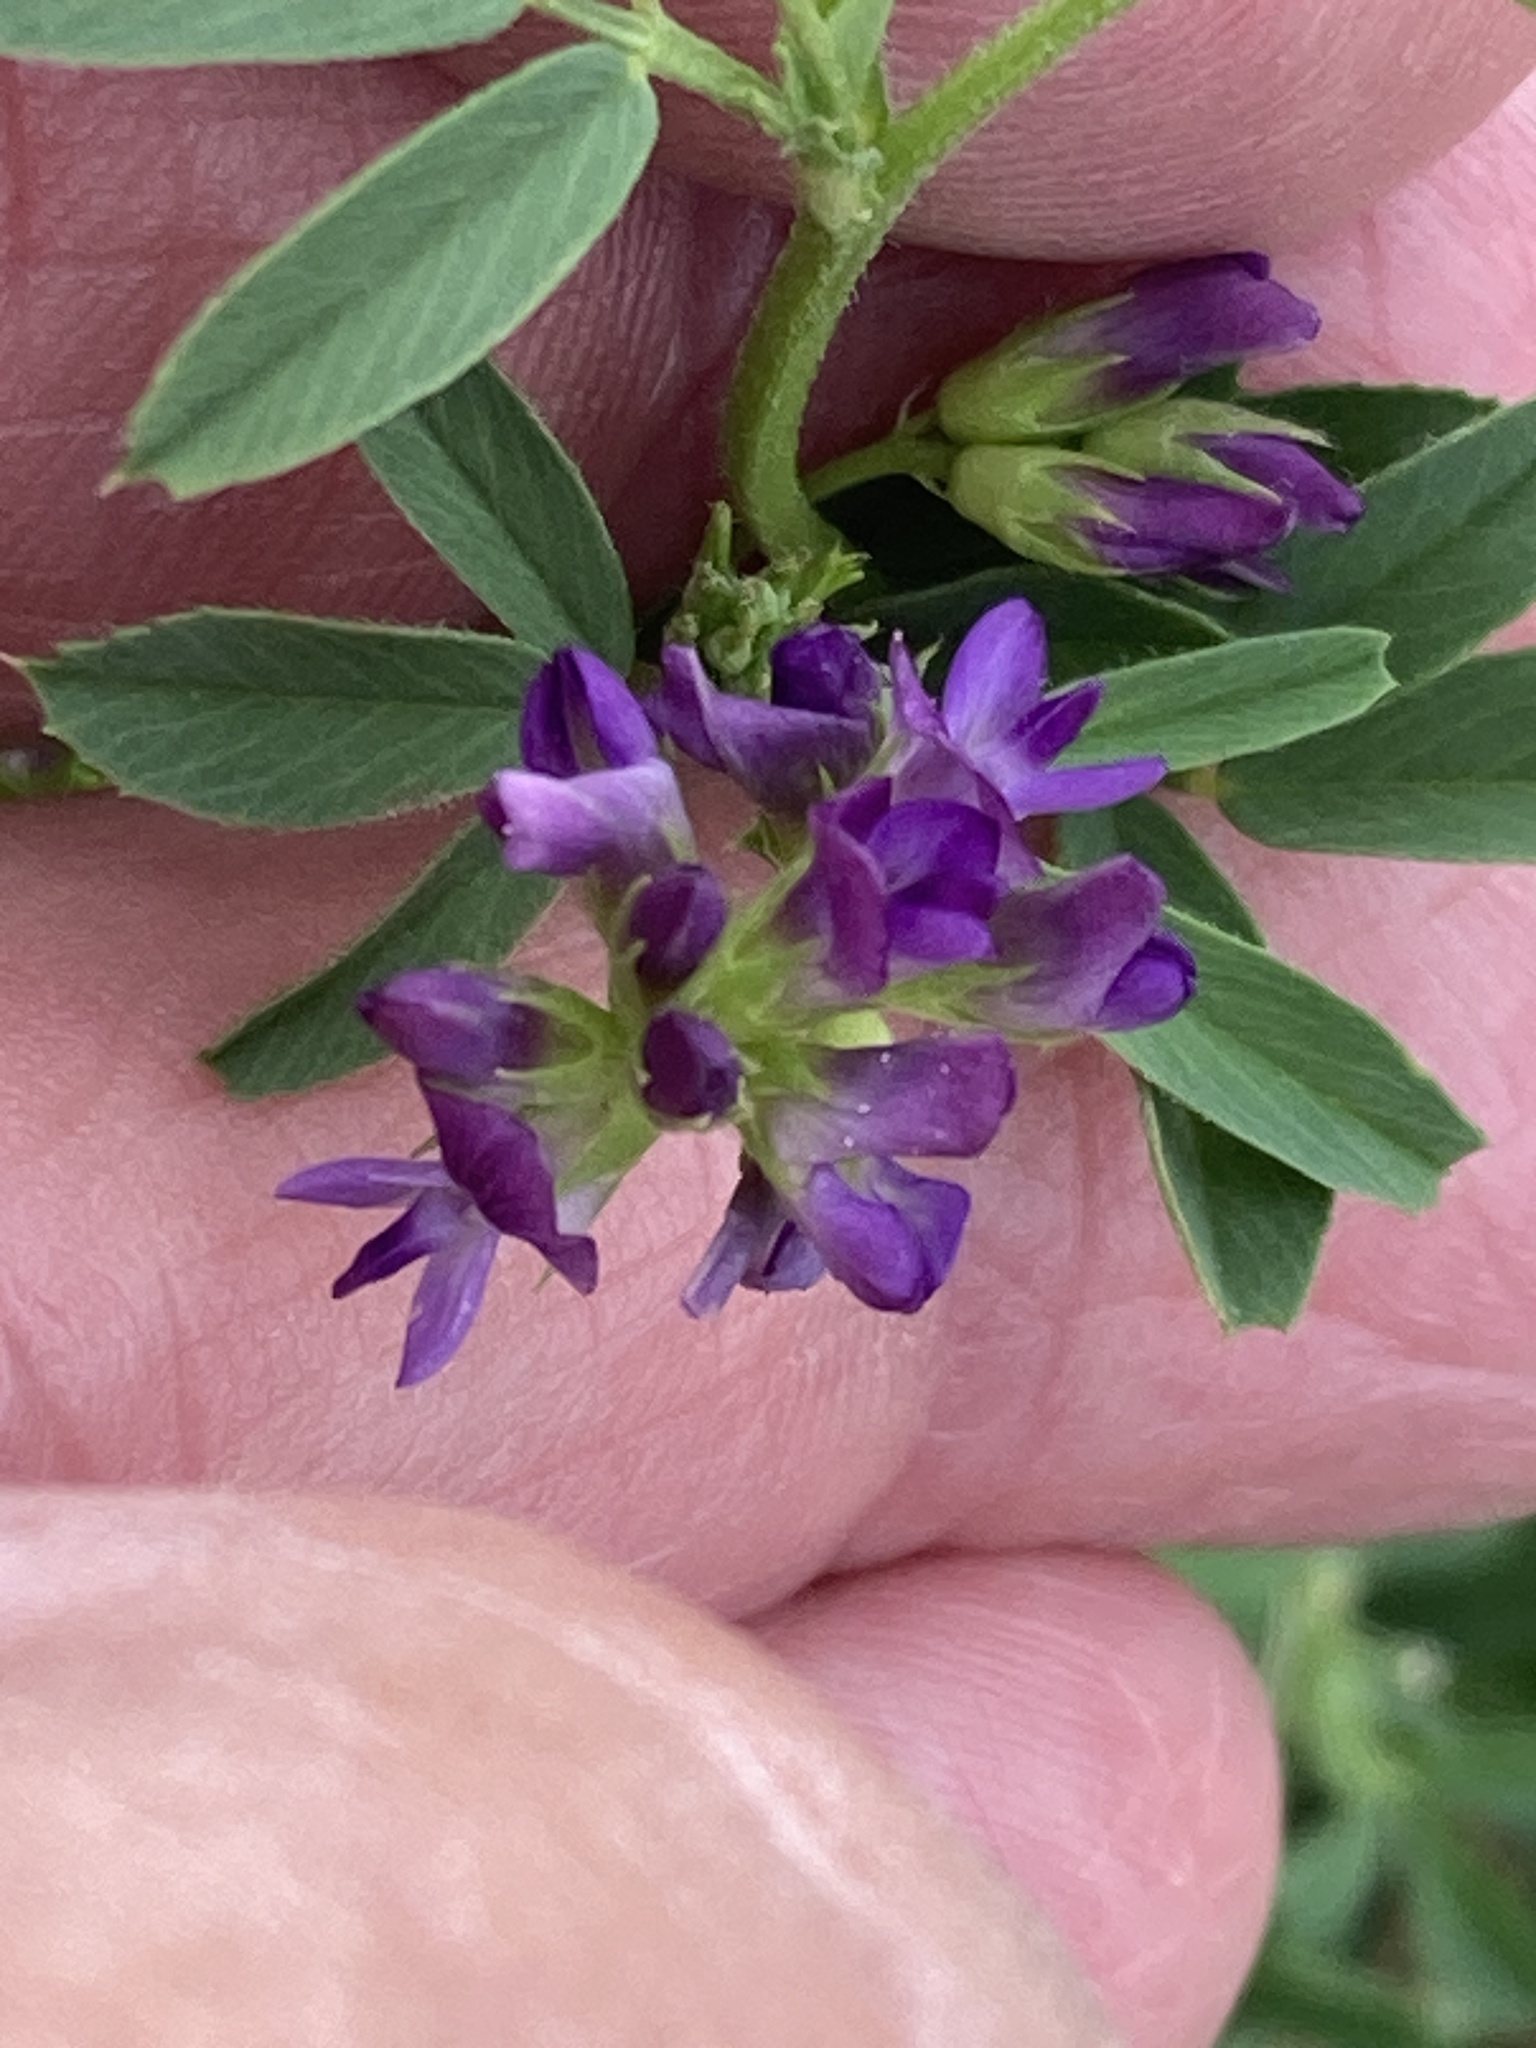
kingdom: Plantae
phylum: Tracheophyta
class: Magnoliopsida
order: Fabales
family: Fabaceae
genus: Medicago
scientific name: Medicago sativa
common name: Alfalfa
